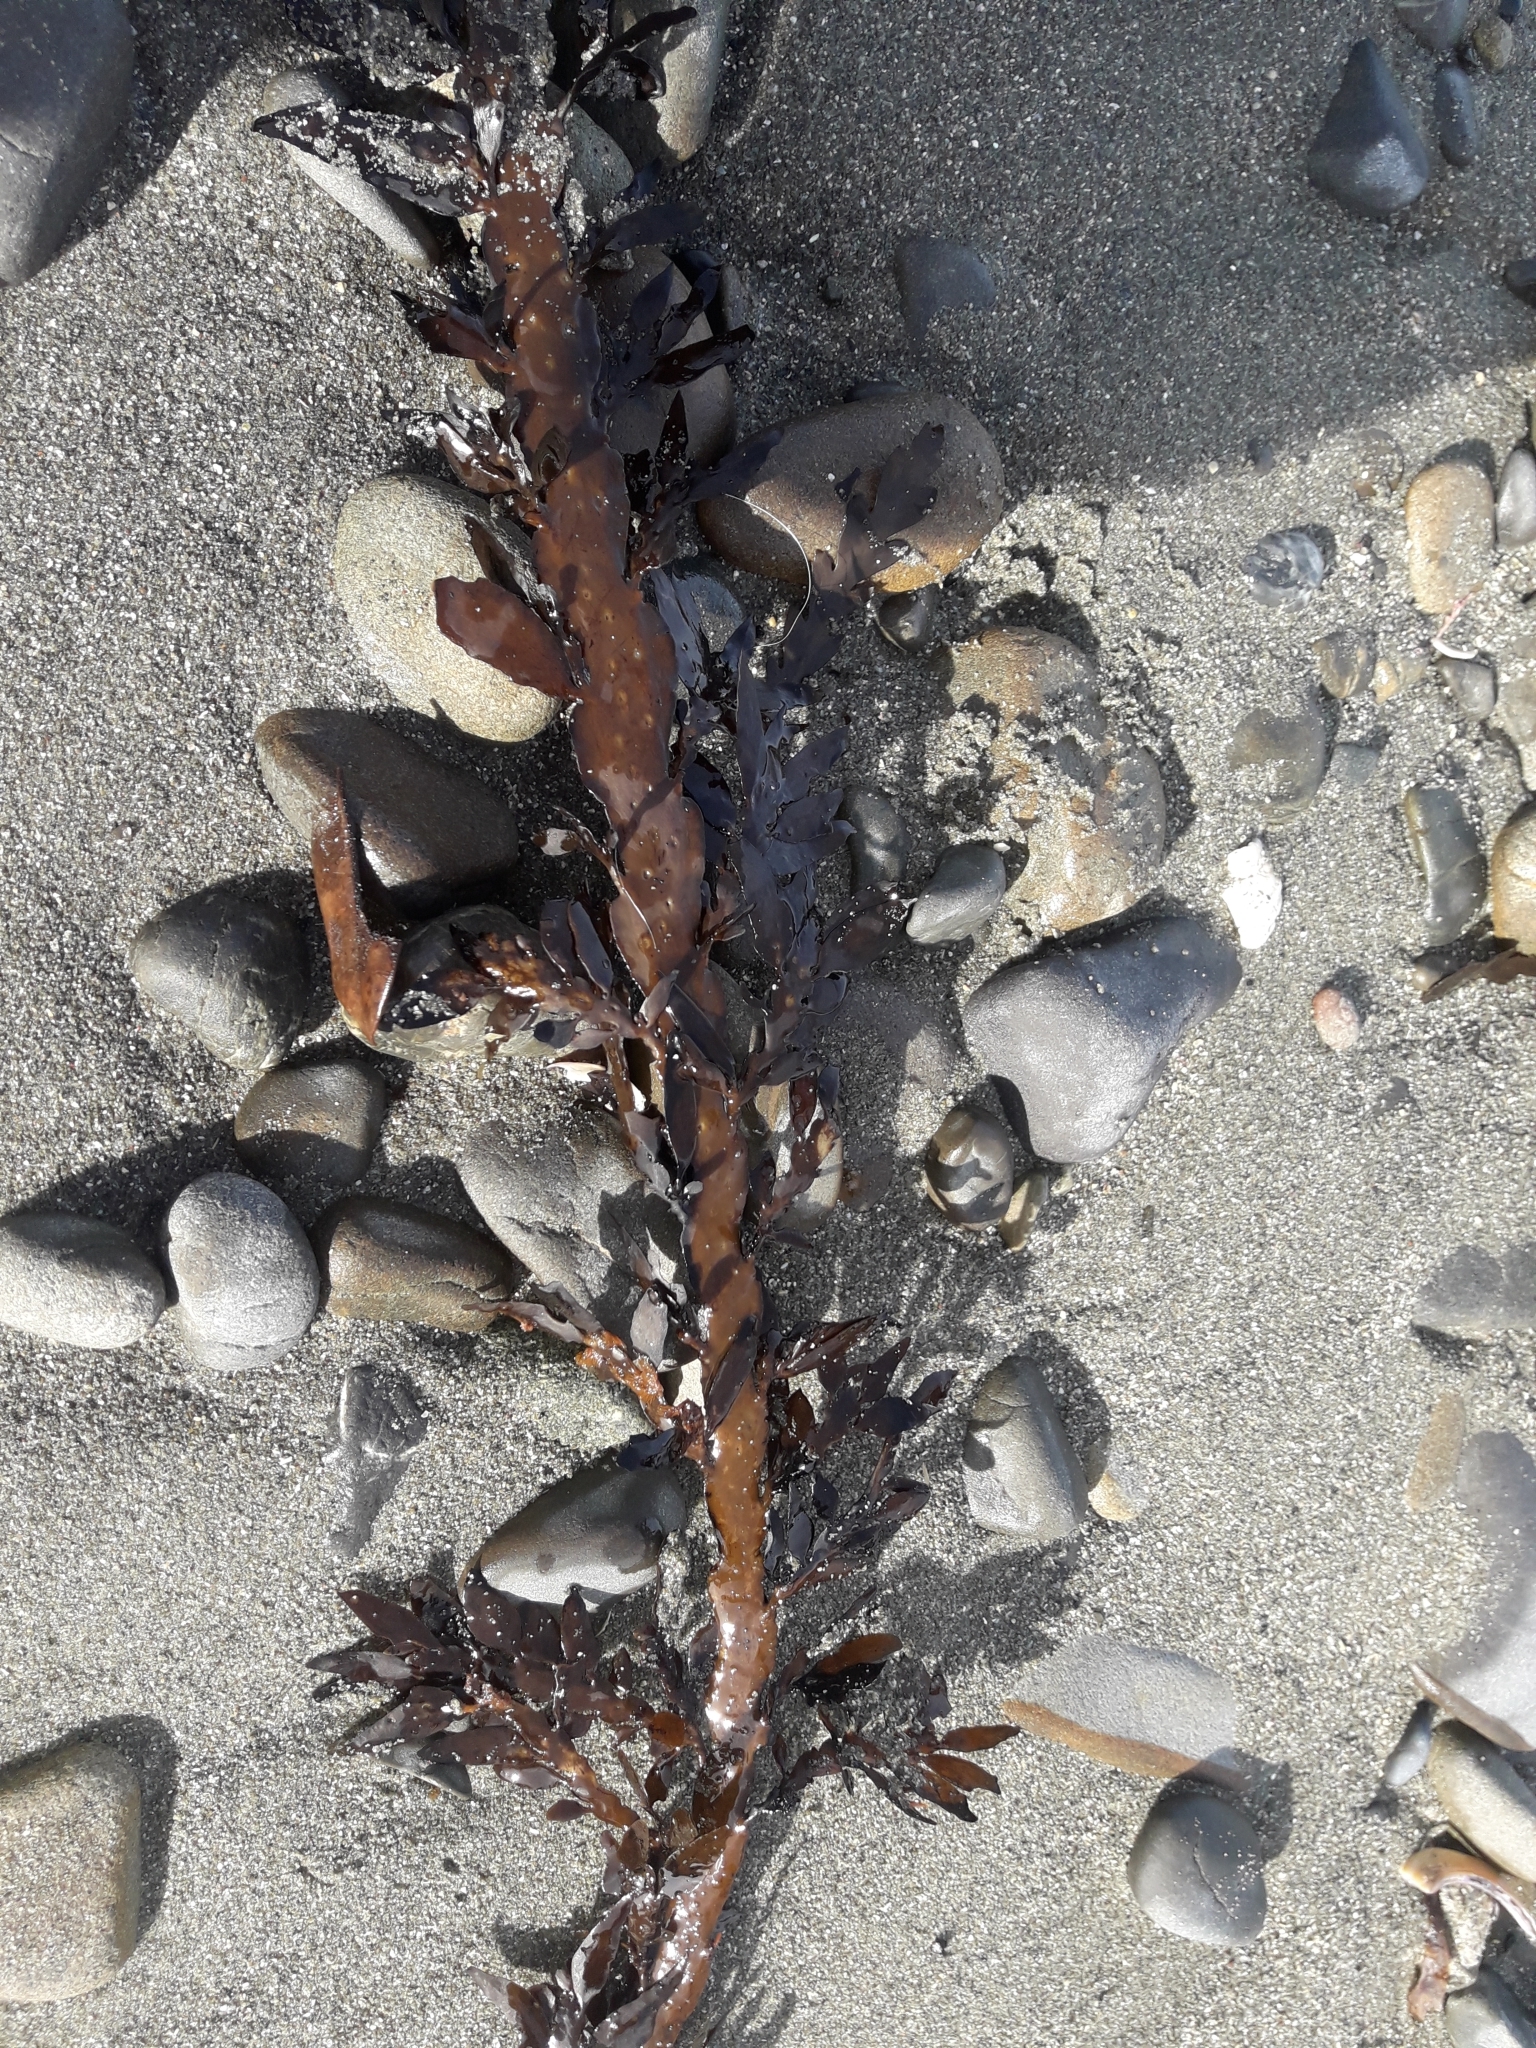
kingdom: Chromista
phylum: Ochrophyta
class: Phaeophyceae
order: Fucales
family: Sargassaceae
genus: Carpophyllum
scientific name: Carpophyllum maschalocarpum
